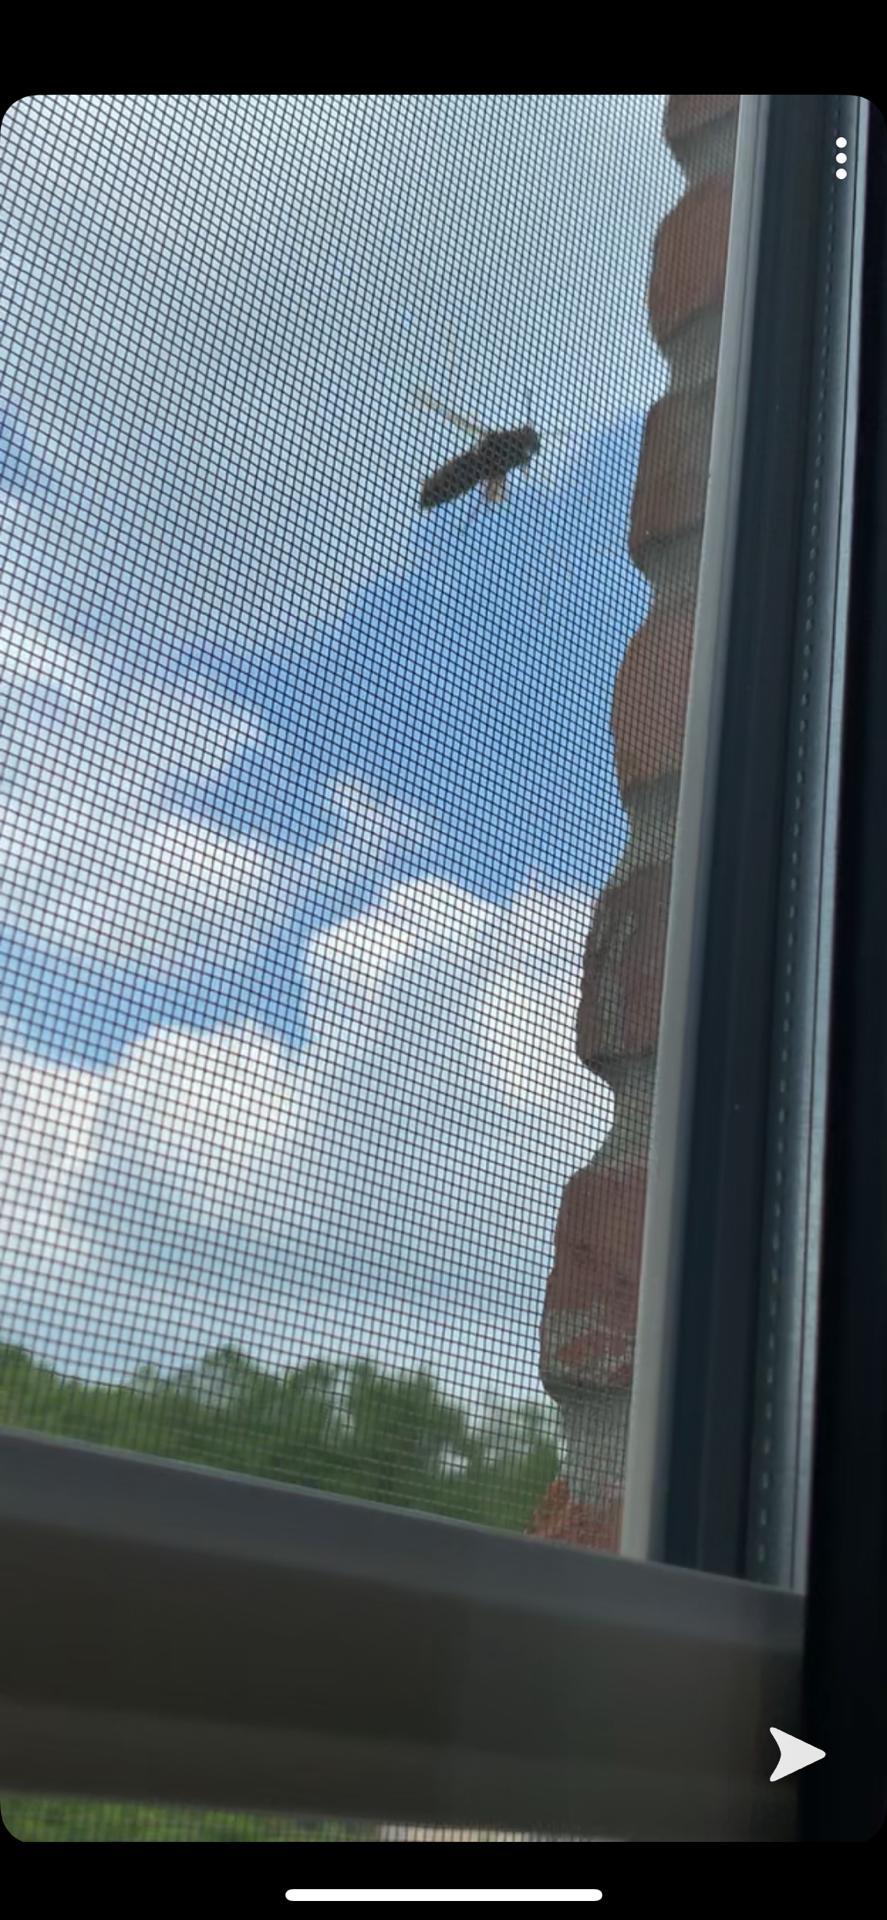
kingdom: Animalia
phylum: Arthropoda
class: Insecta
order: Hymenoptera
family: Vespidae
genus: Vespa
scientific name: Vespa crabro
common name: Hornet
